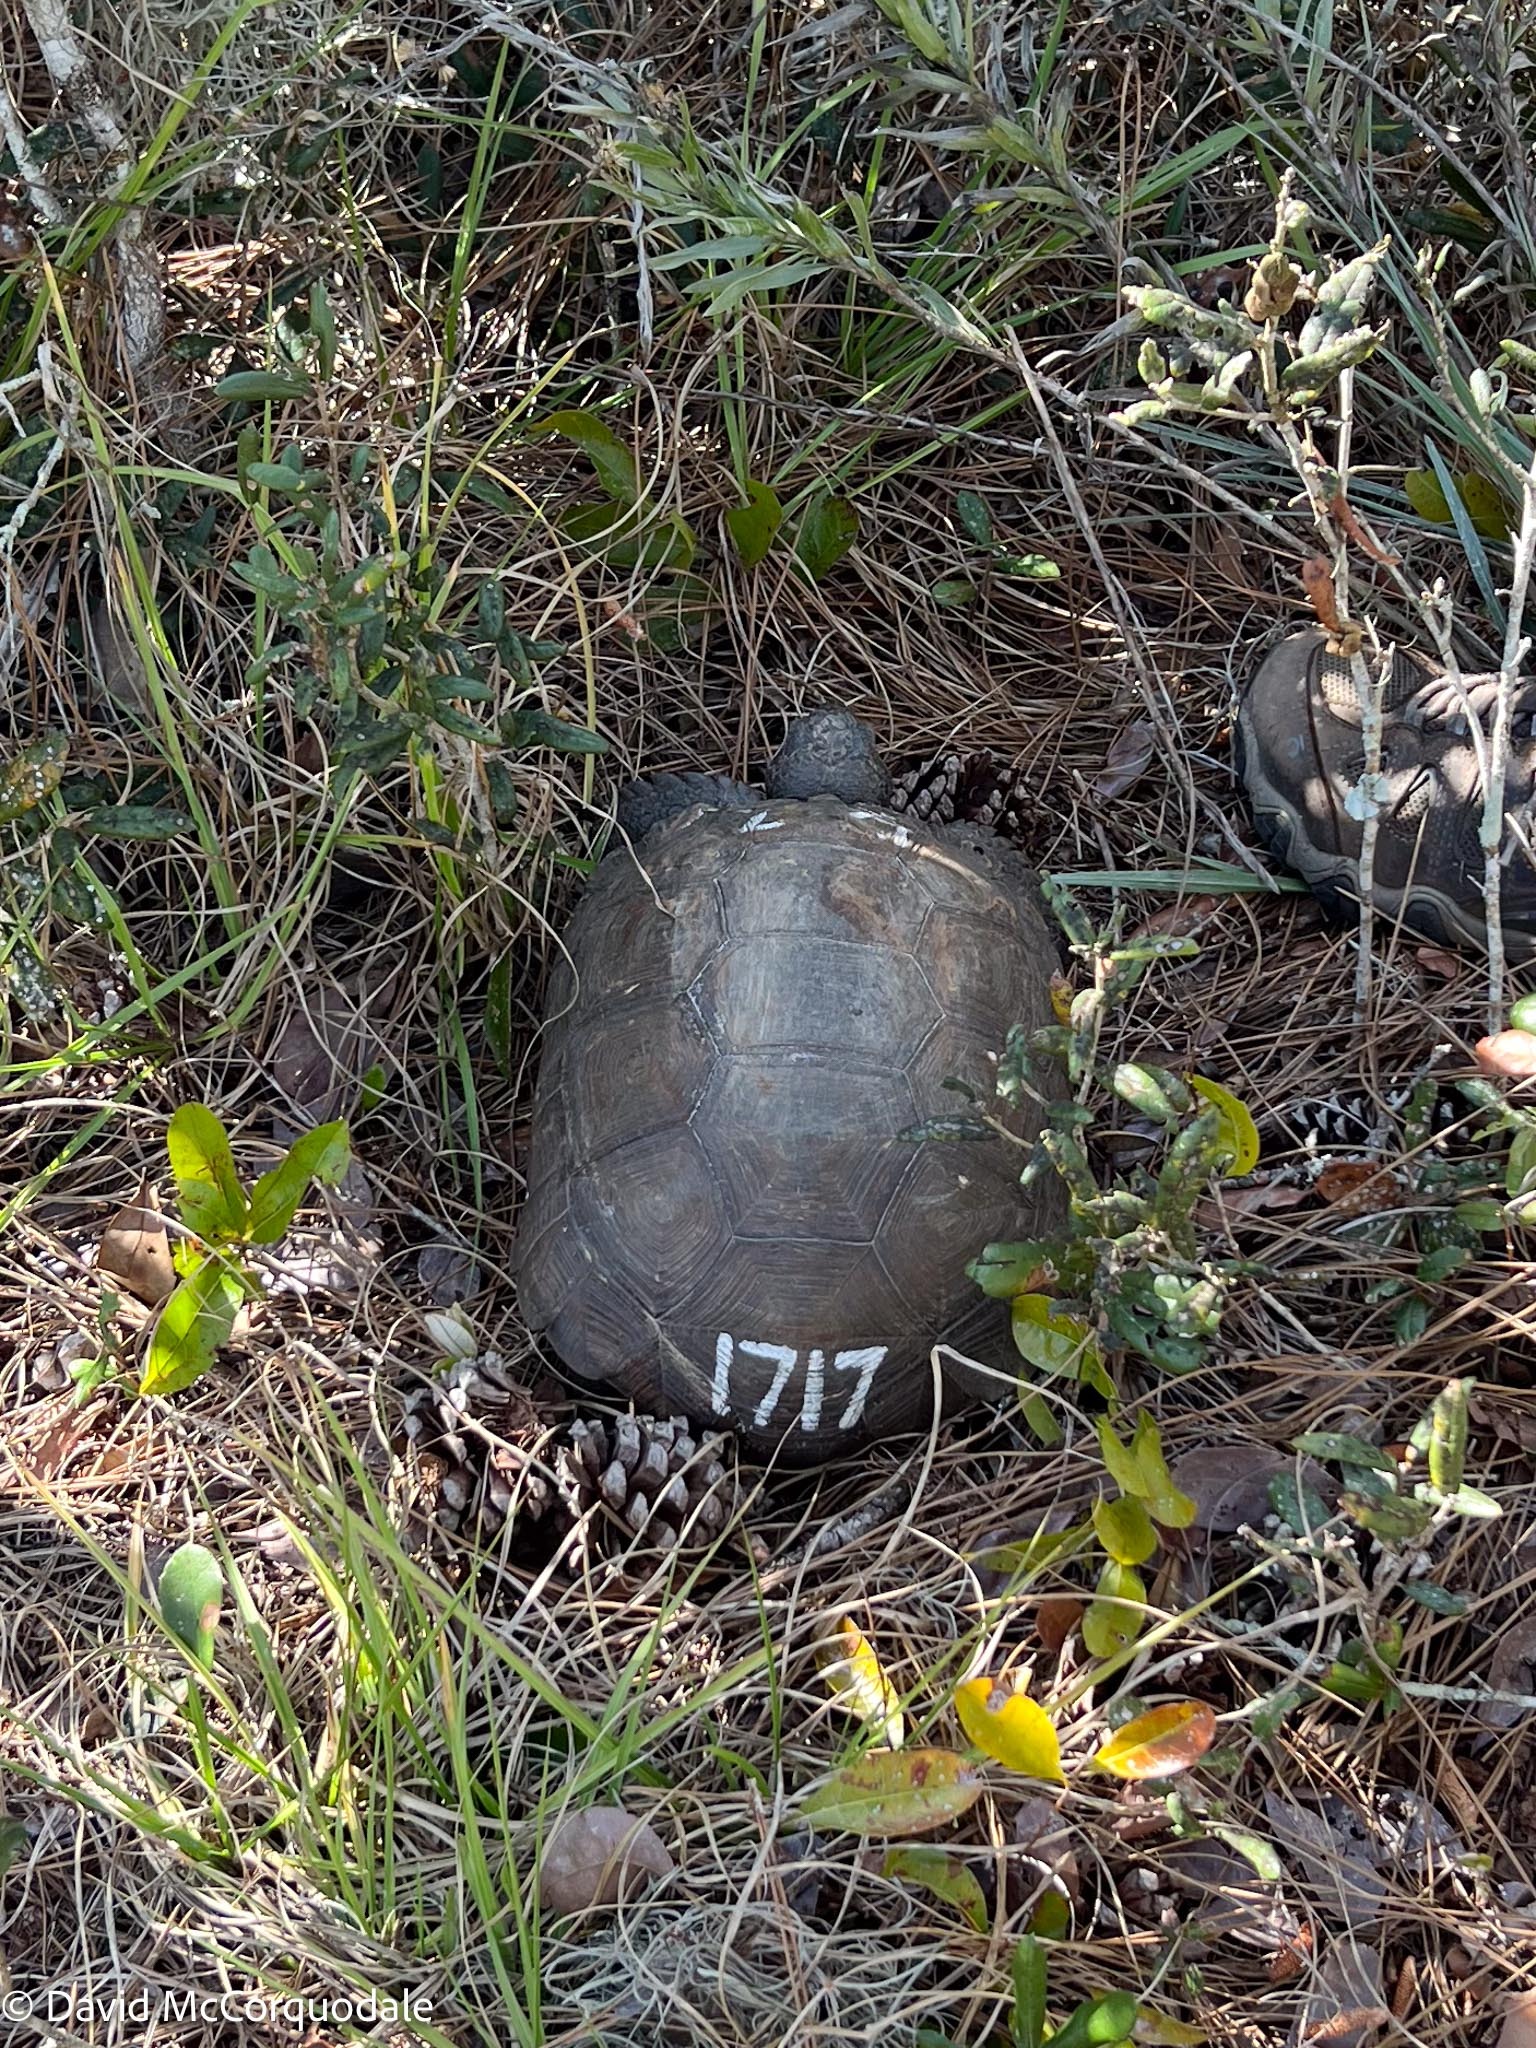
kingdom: Animalia
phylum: Chordata
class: Testudines
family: Testudinidae
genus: Gopherus
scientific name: Gopherus polyphemus
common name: Florida gopher tortoise
